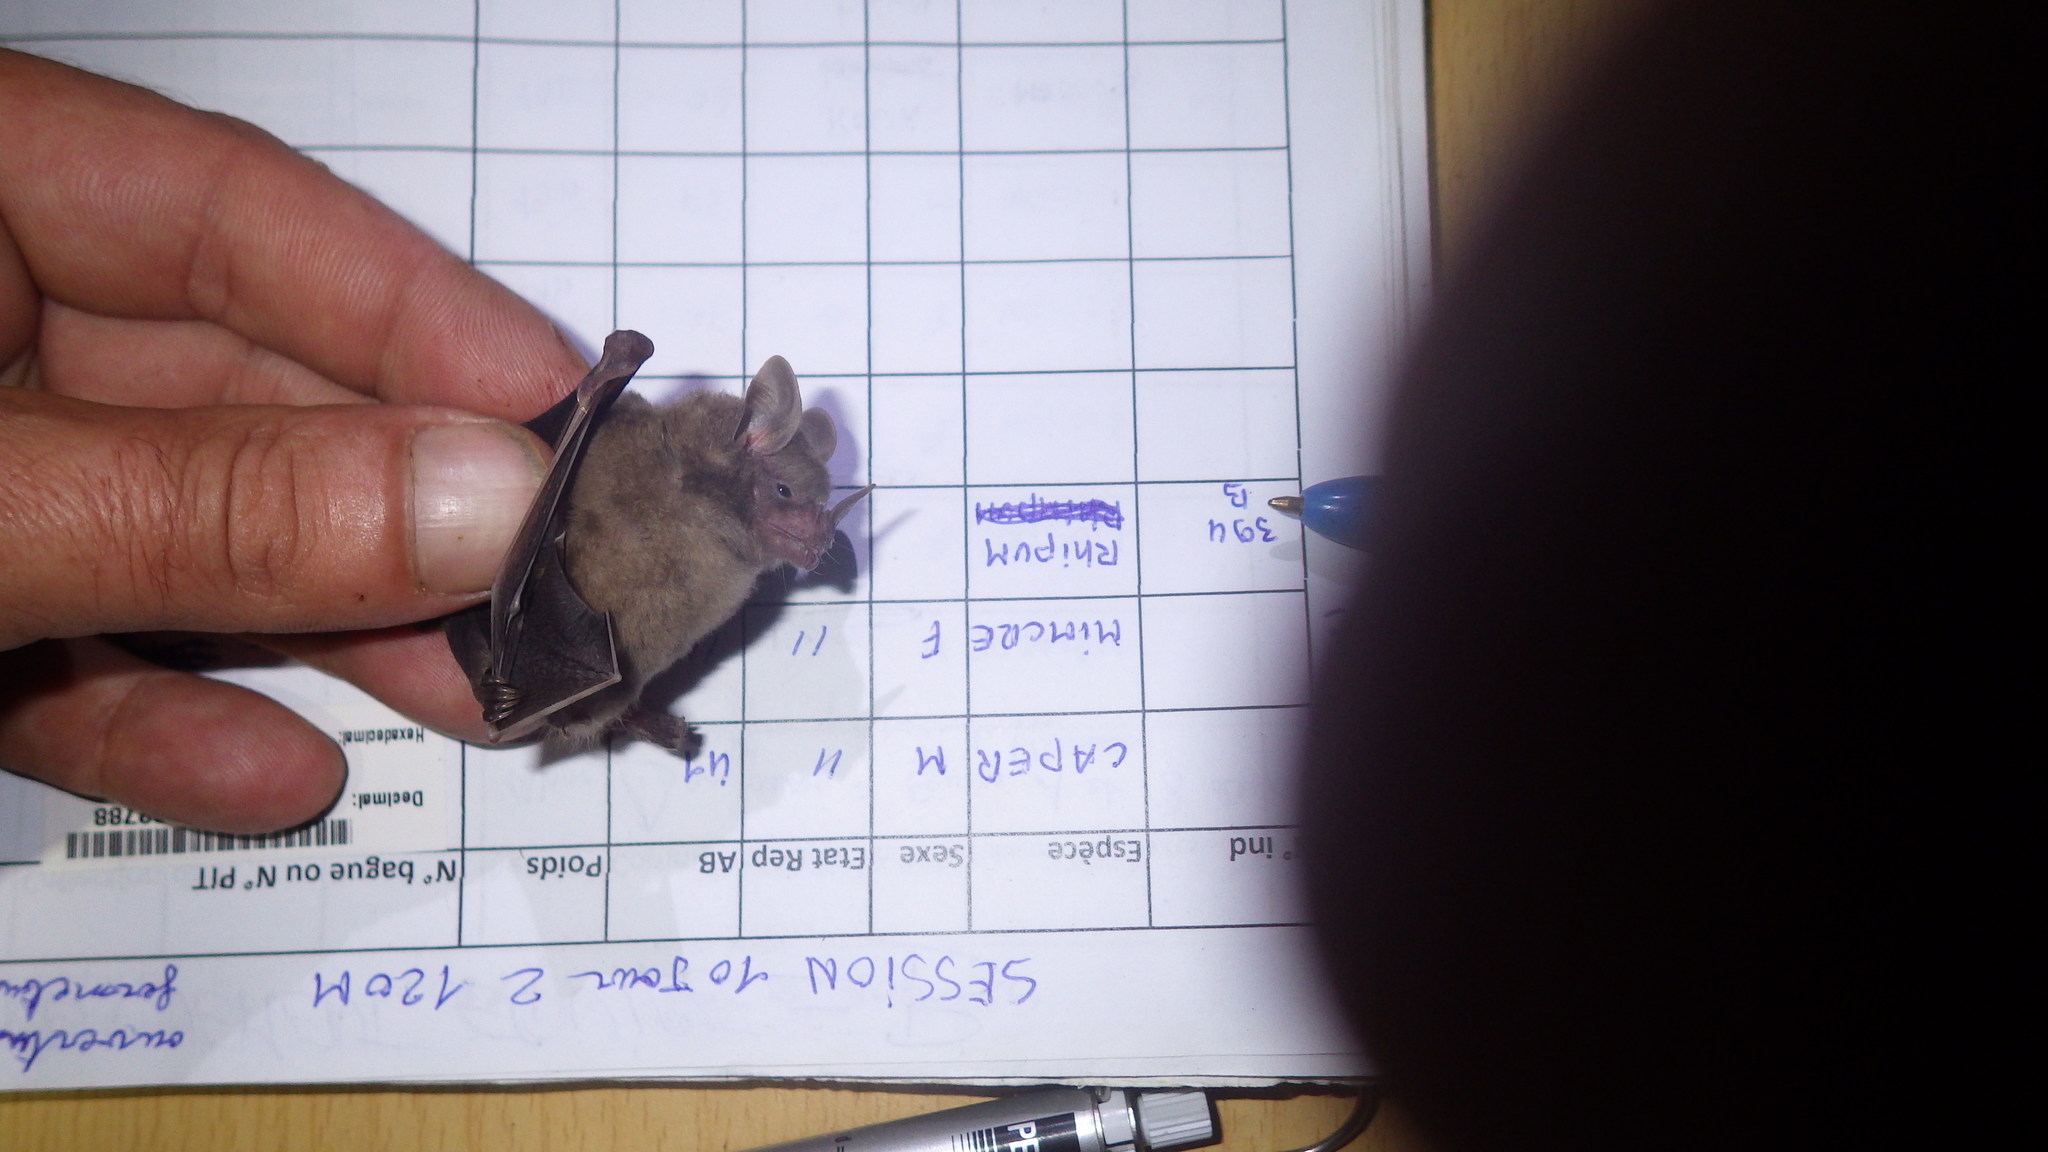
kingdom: Animalia
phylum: Chordata
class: Mammalia
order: Chiroptera
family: Phyllostomidae
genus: Rhinophylla
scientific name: Rhinophylla pumilio
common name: Dwarf little fruit bat
